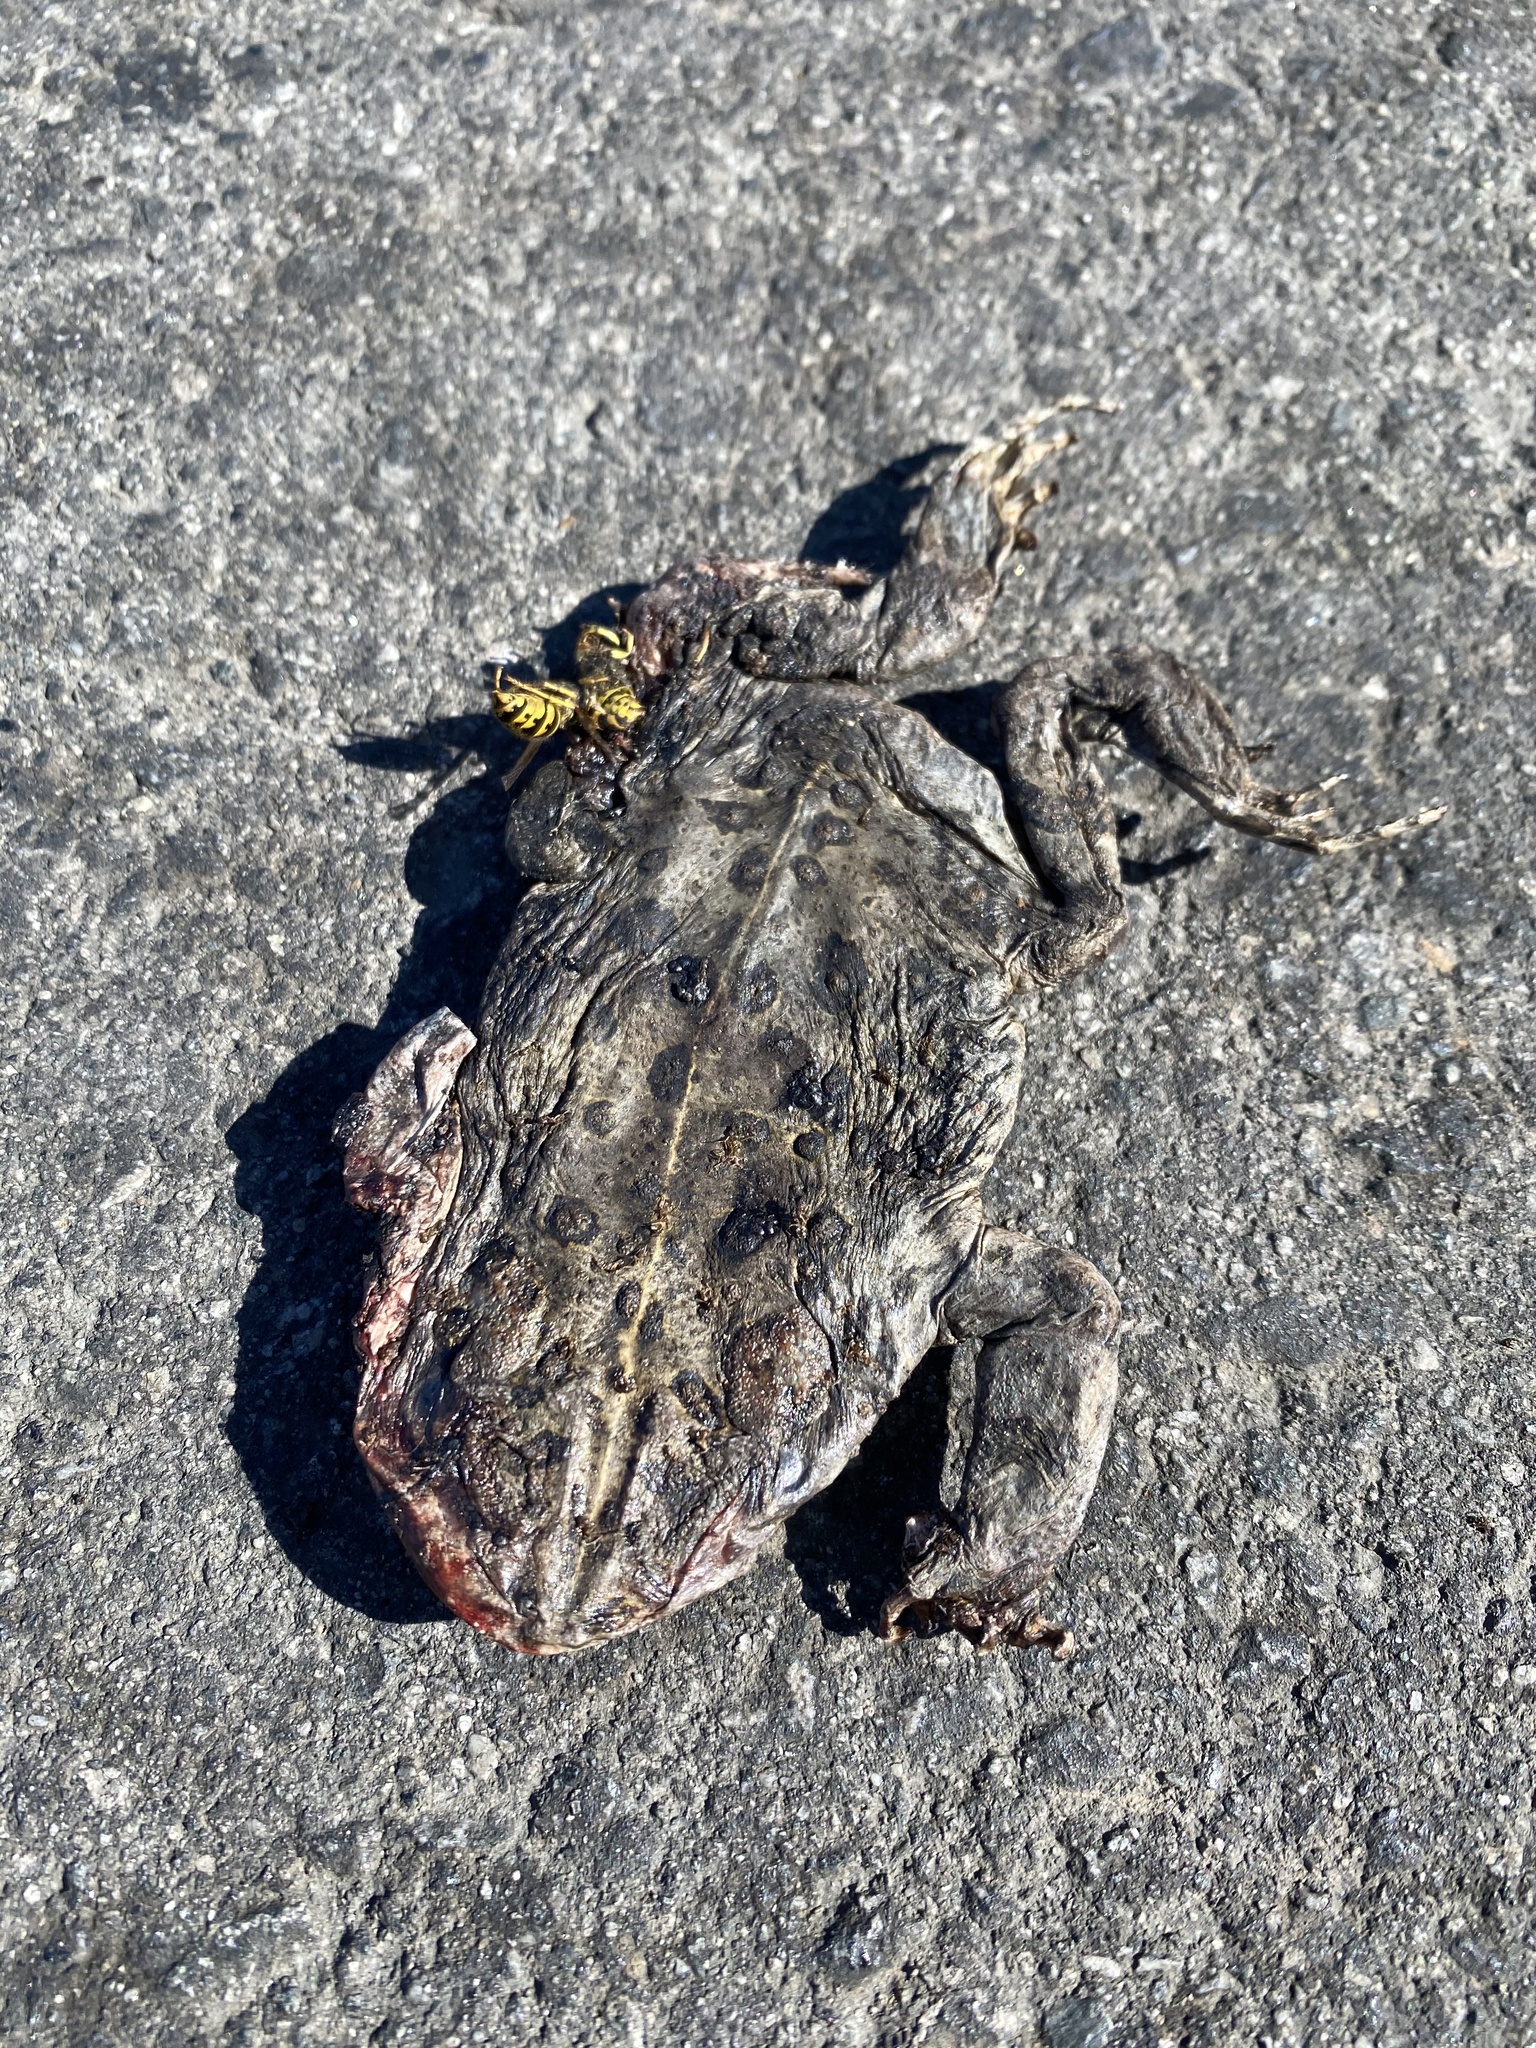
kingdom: Animalia
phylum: Chordata
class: Amphibia
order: Anura
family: Bufonidae
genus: Anaxyrus
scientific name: Anaxyrus boreas
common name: Western toad
